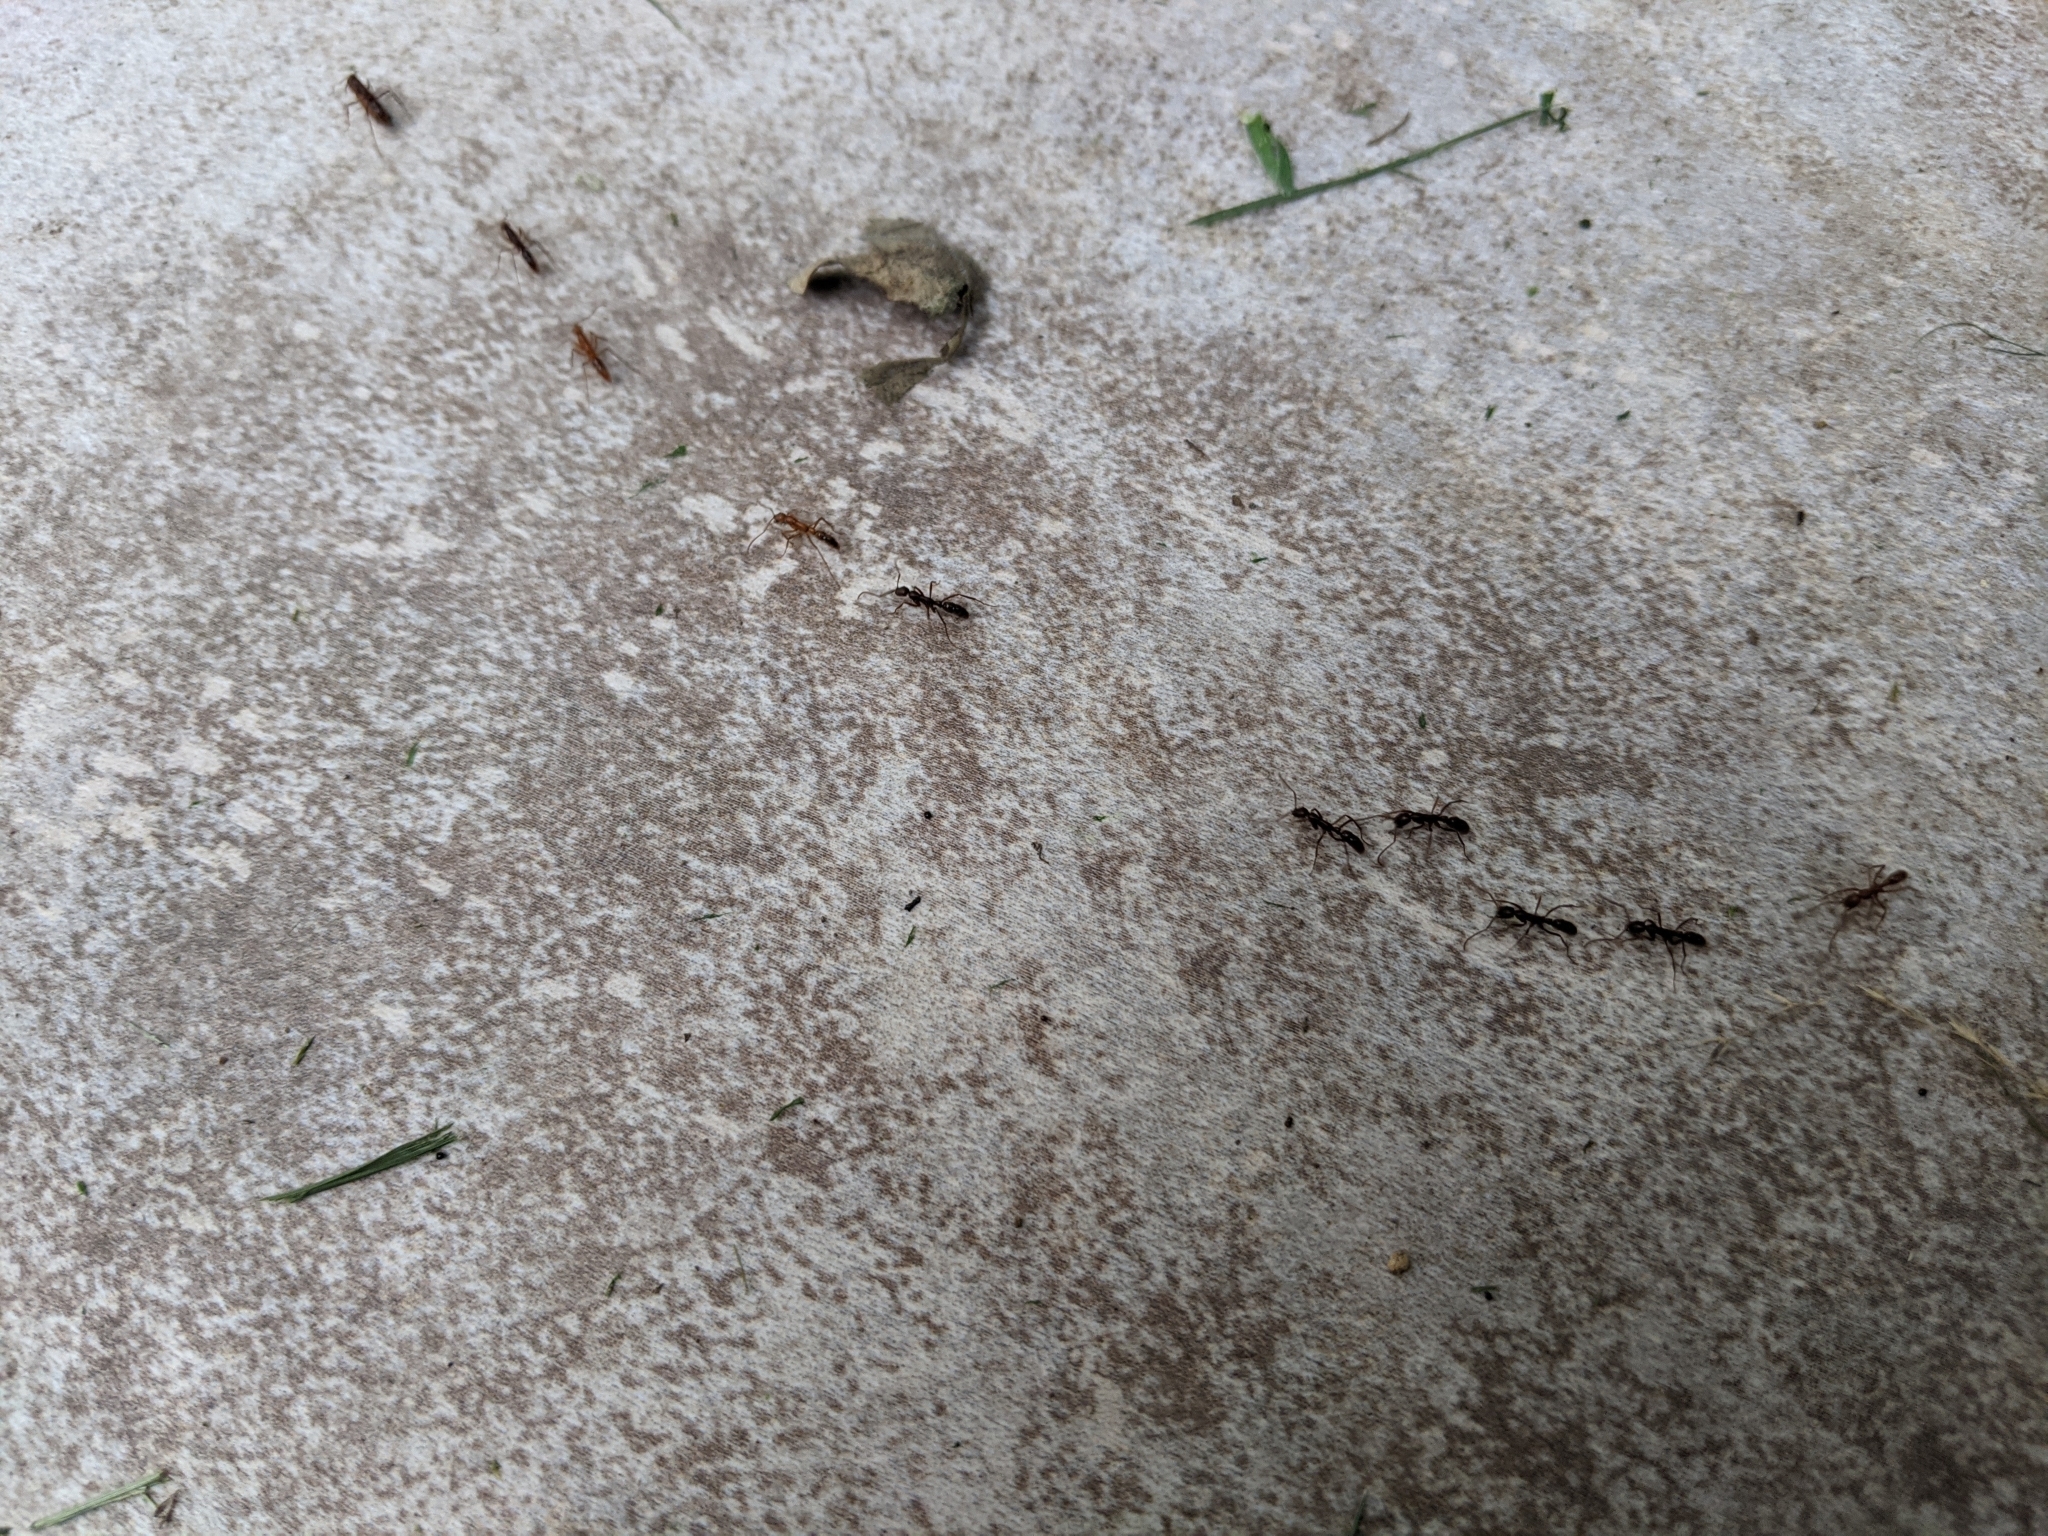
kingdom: Animalia
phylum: Arthropoda
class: Insecta
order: Hymenoptera
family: Formicidae
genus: Leptogenys
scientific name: Leptogenys elongata
